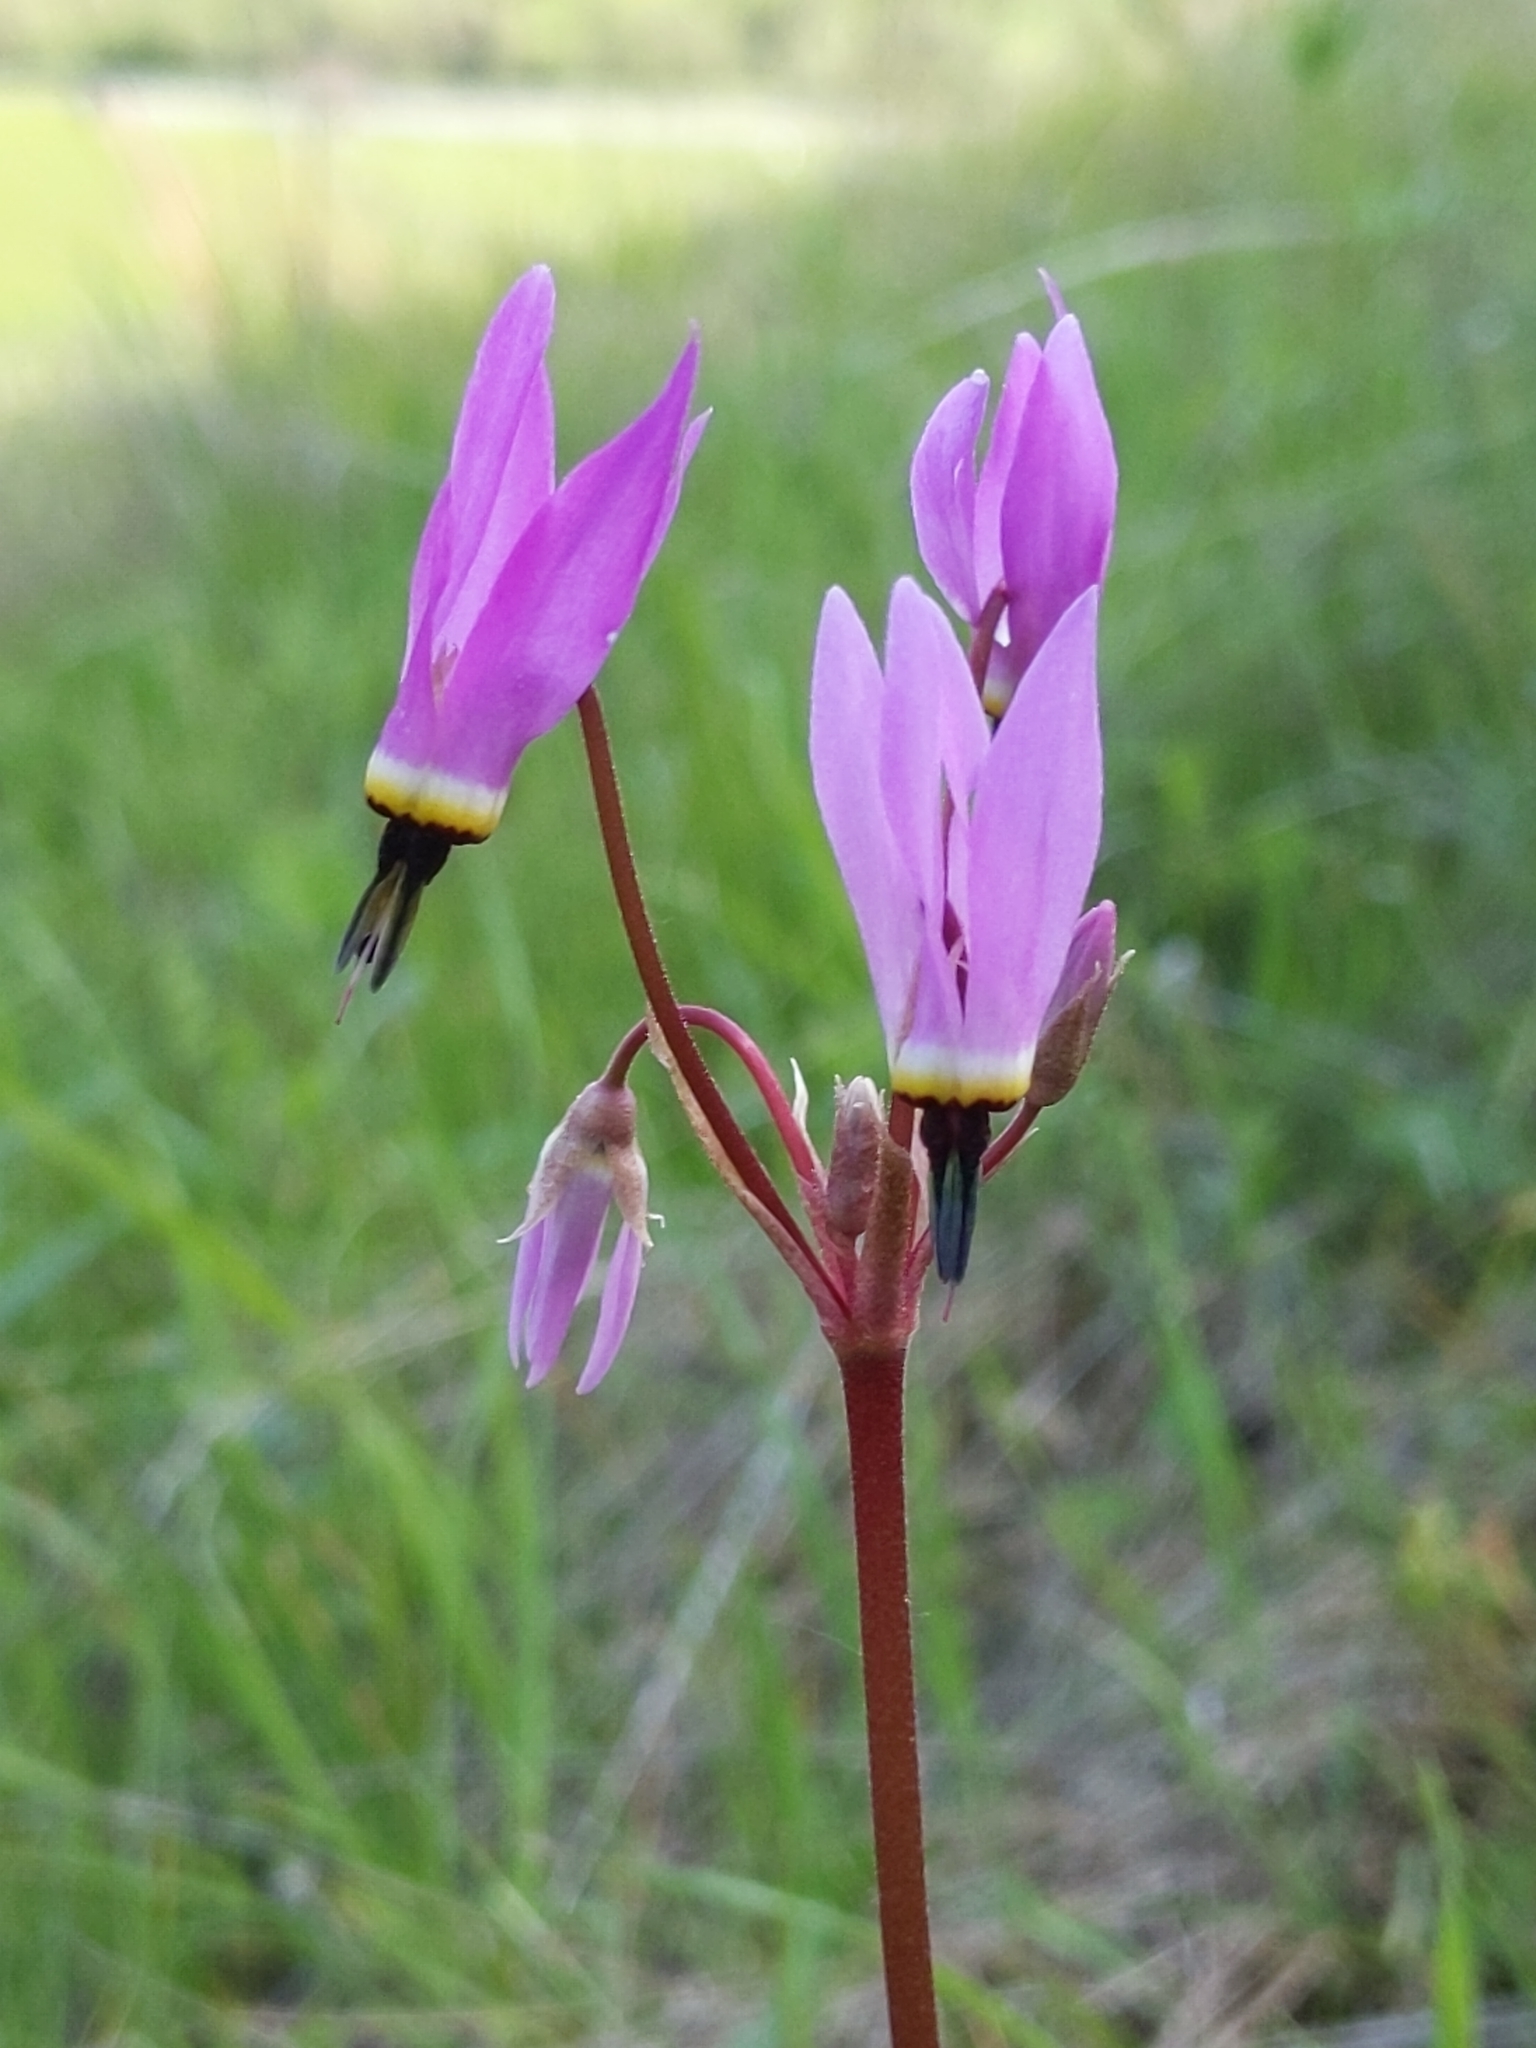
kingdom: Plantae
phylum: Tracheophyta
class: Magnoliopsida
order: Ericales
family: Primulaceae
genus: Dodecatheon
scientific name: Dodecatheon hendersonii
